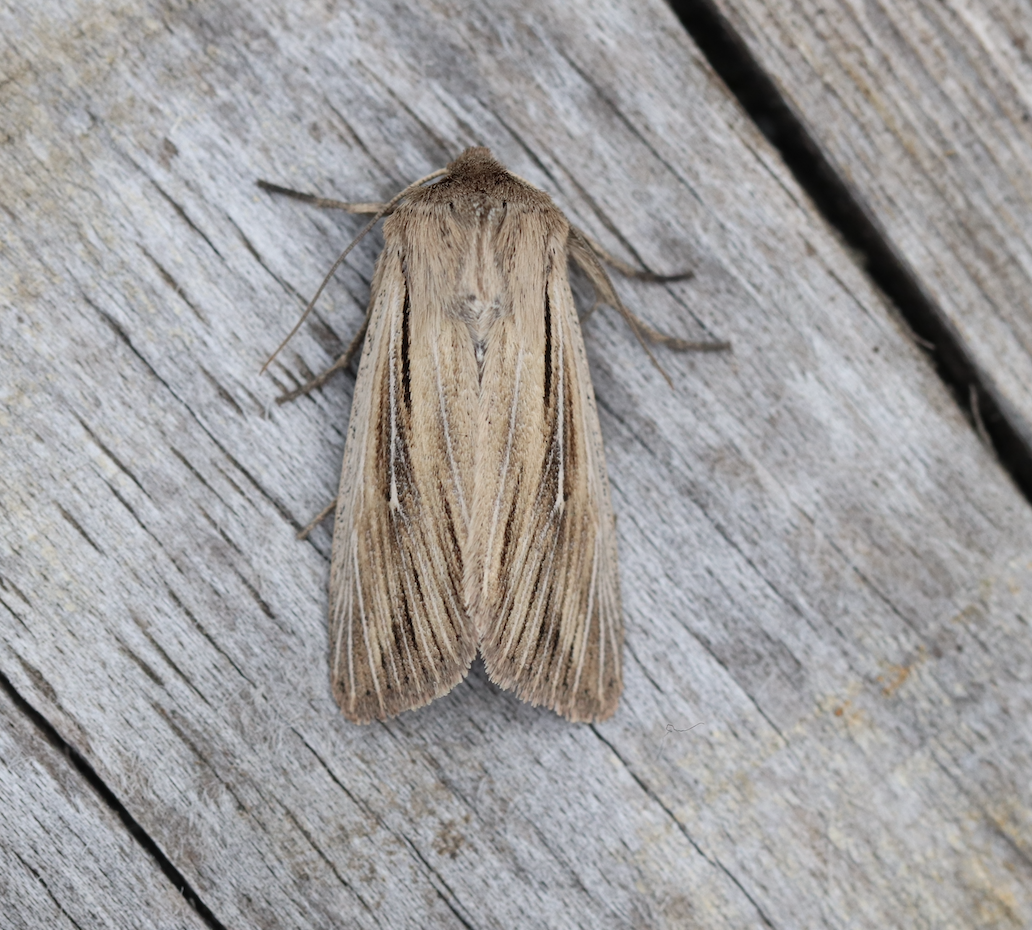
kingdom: Animalia
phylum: Arthropoda
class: Insecta
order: Lepidoptera
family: Noctuidae
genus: Leucania
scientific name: Leucania comma
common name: Shoulder-striped wainscot
